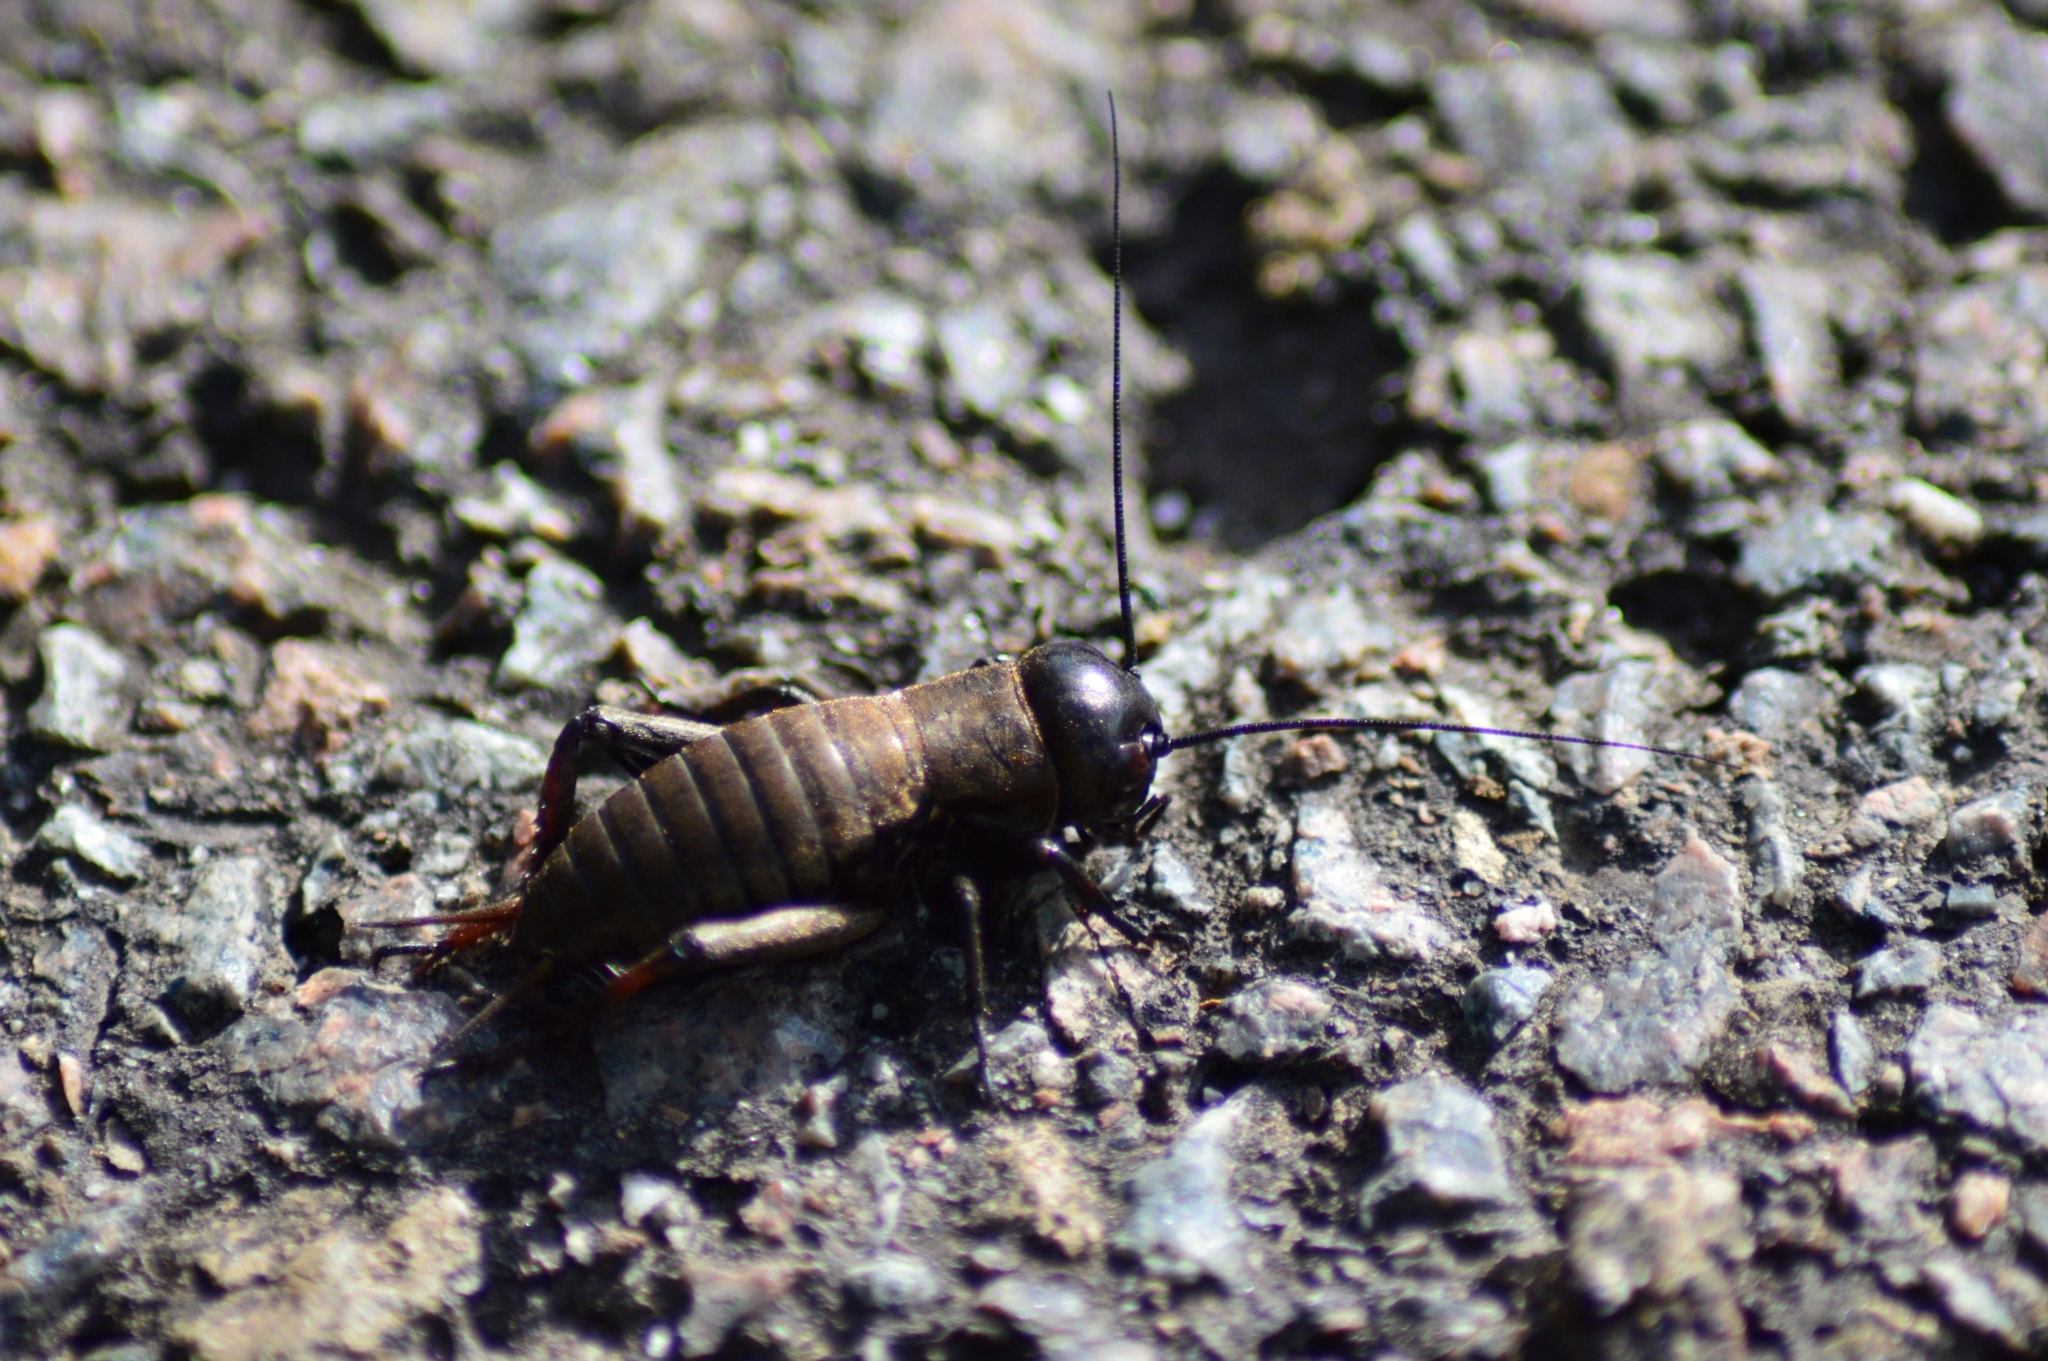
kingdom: Animalia
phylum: Arthropoda
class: Insecta
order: Orthoptera
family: Gryllidae
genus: Gryllus
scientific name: Gryllus campestris
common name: Field cricket
